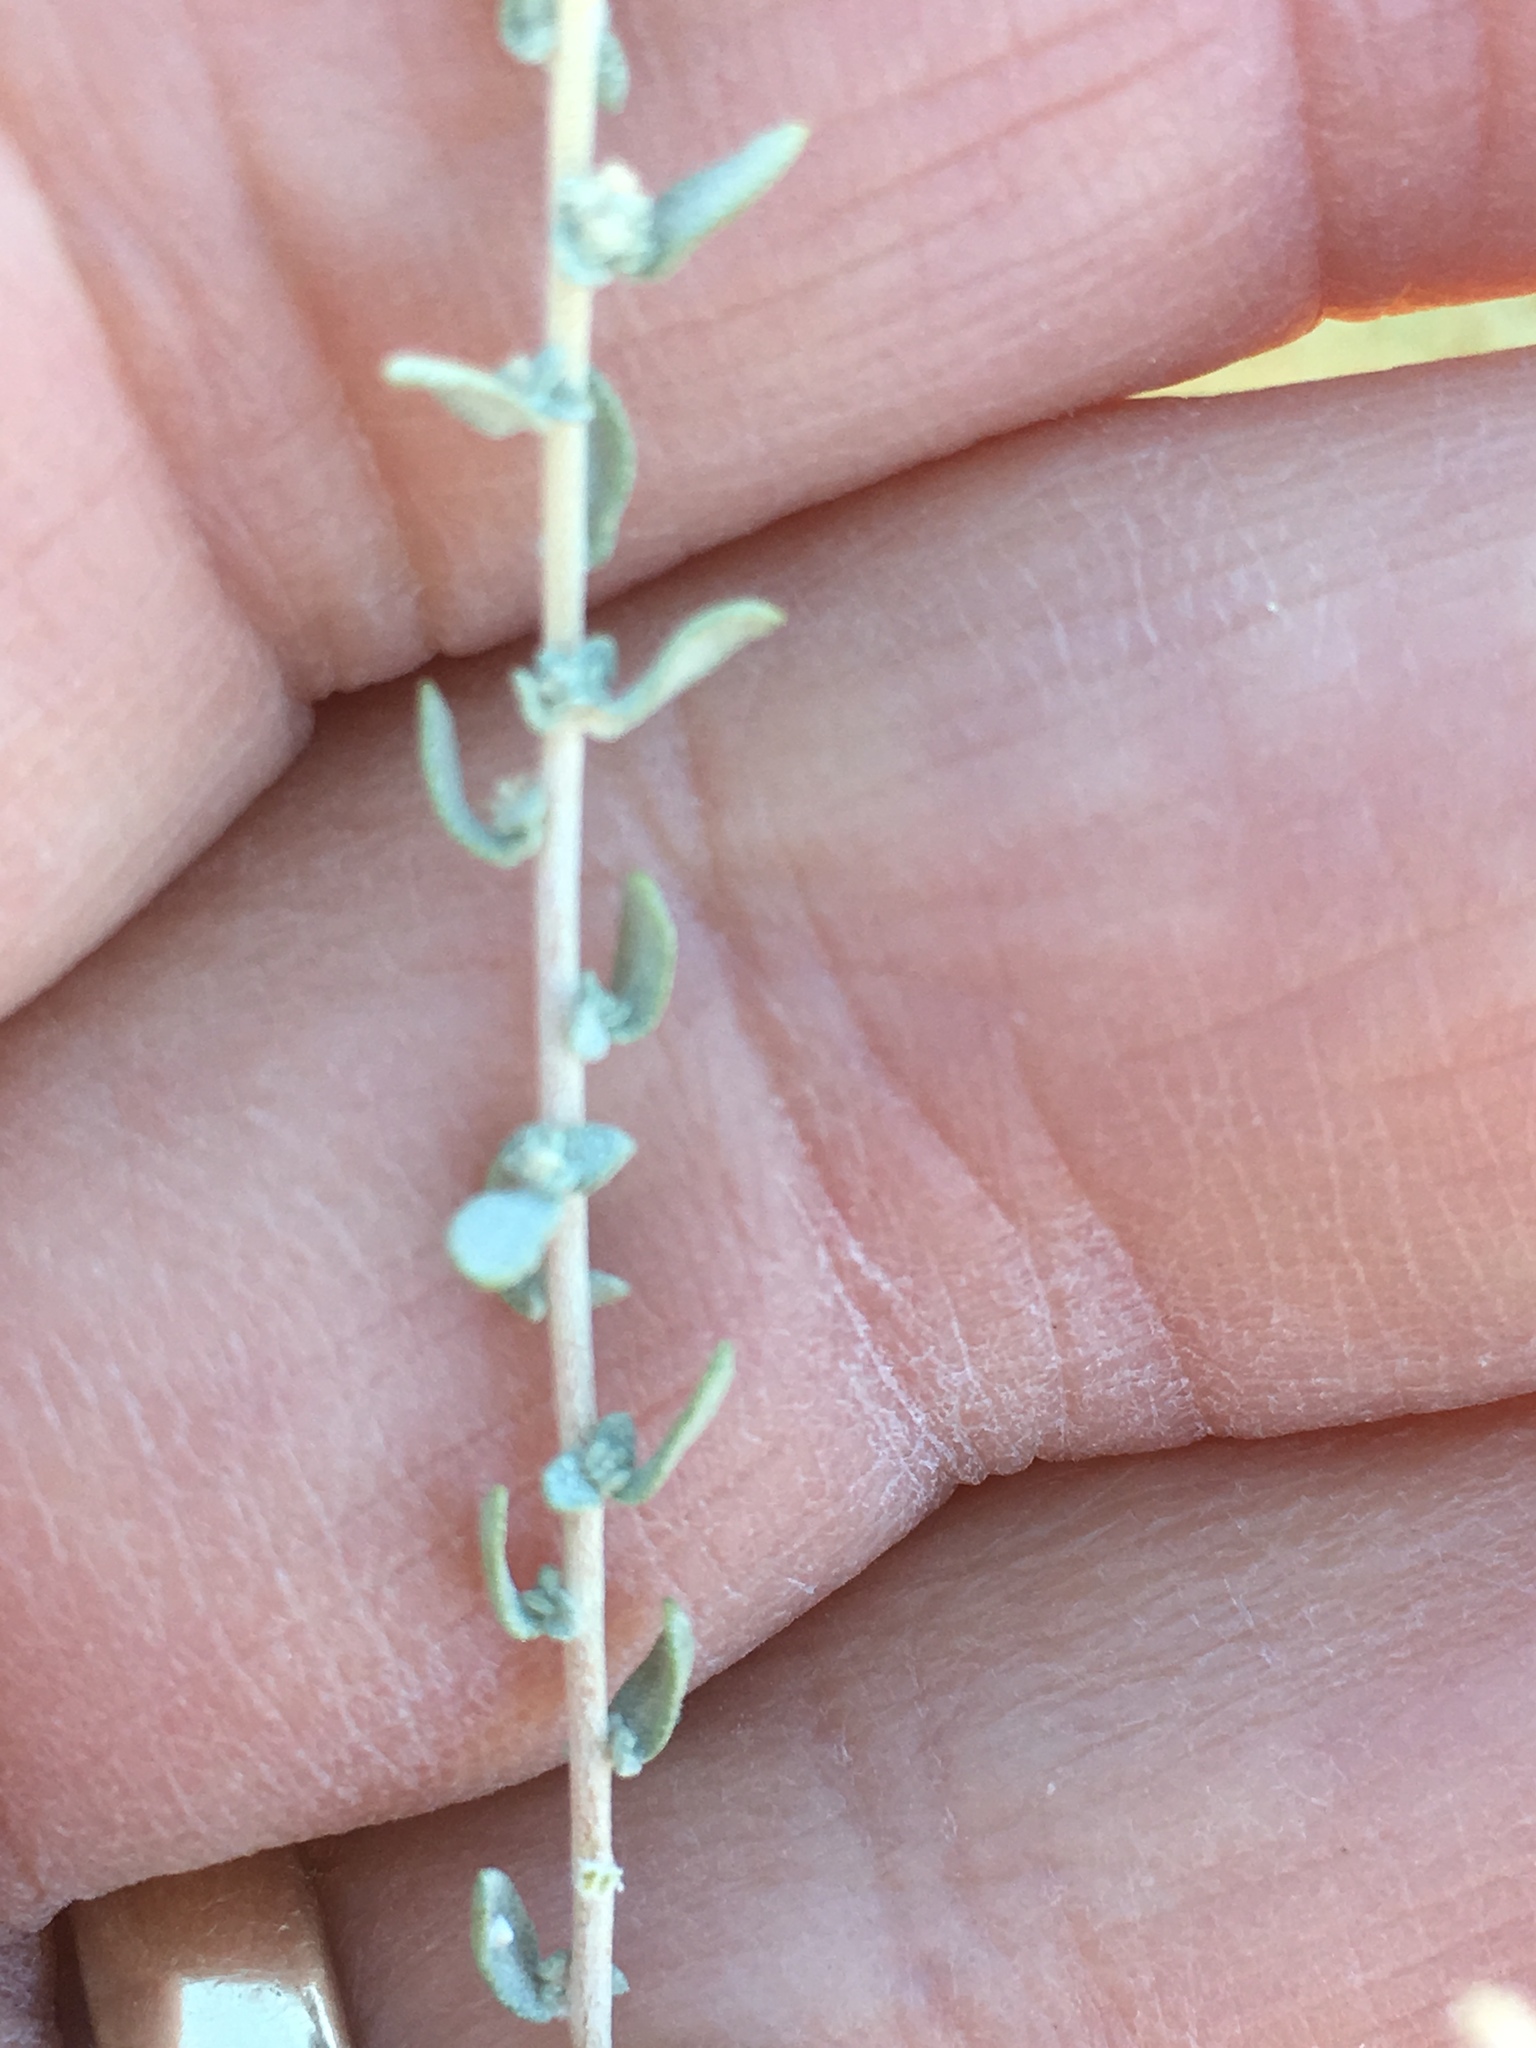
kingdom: Plantae
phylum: Tracheophyta
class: Magnoliopsida
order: Caryophyllales
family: Amaranthaceae
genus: Atriplex
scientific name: Atriplex polycarpa
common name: Desert saltbush
